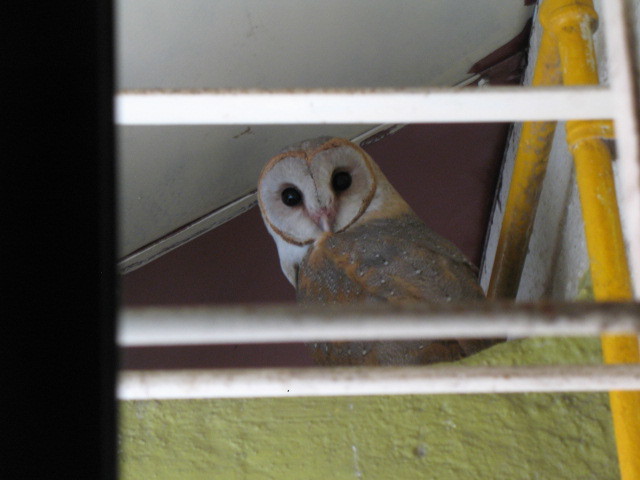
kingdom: Animalia
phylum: Chordata
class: Aves
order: Strigiformes
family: Tytonidae
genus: Tyto
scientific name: Tyto alba
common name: Barn owl
